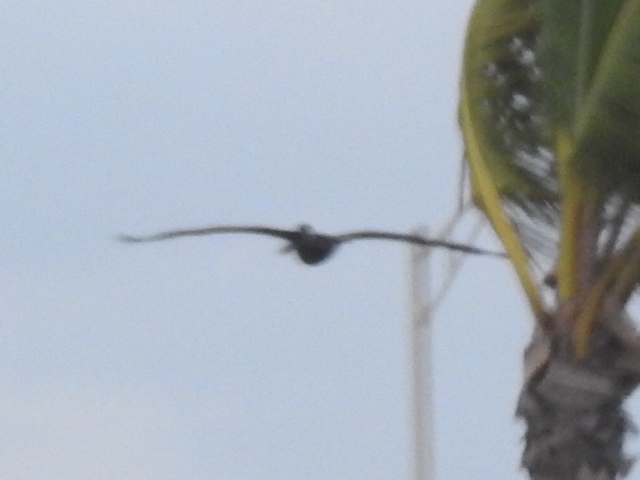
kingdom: Animalia
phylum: Chordata
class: Aves
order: Pelecaniformes
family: Pelecanidae
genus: Pelecanus
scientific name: Pelecanus occidentalis
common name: Brown pelican
